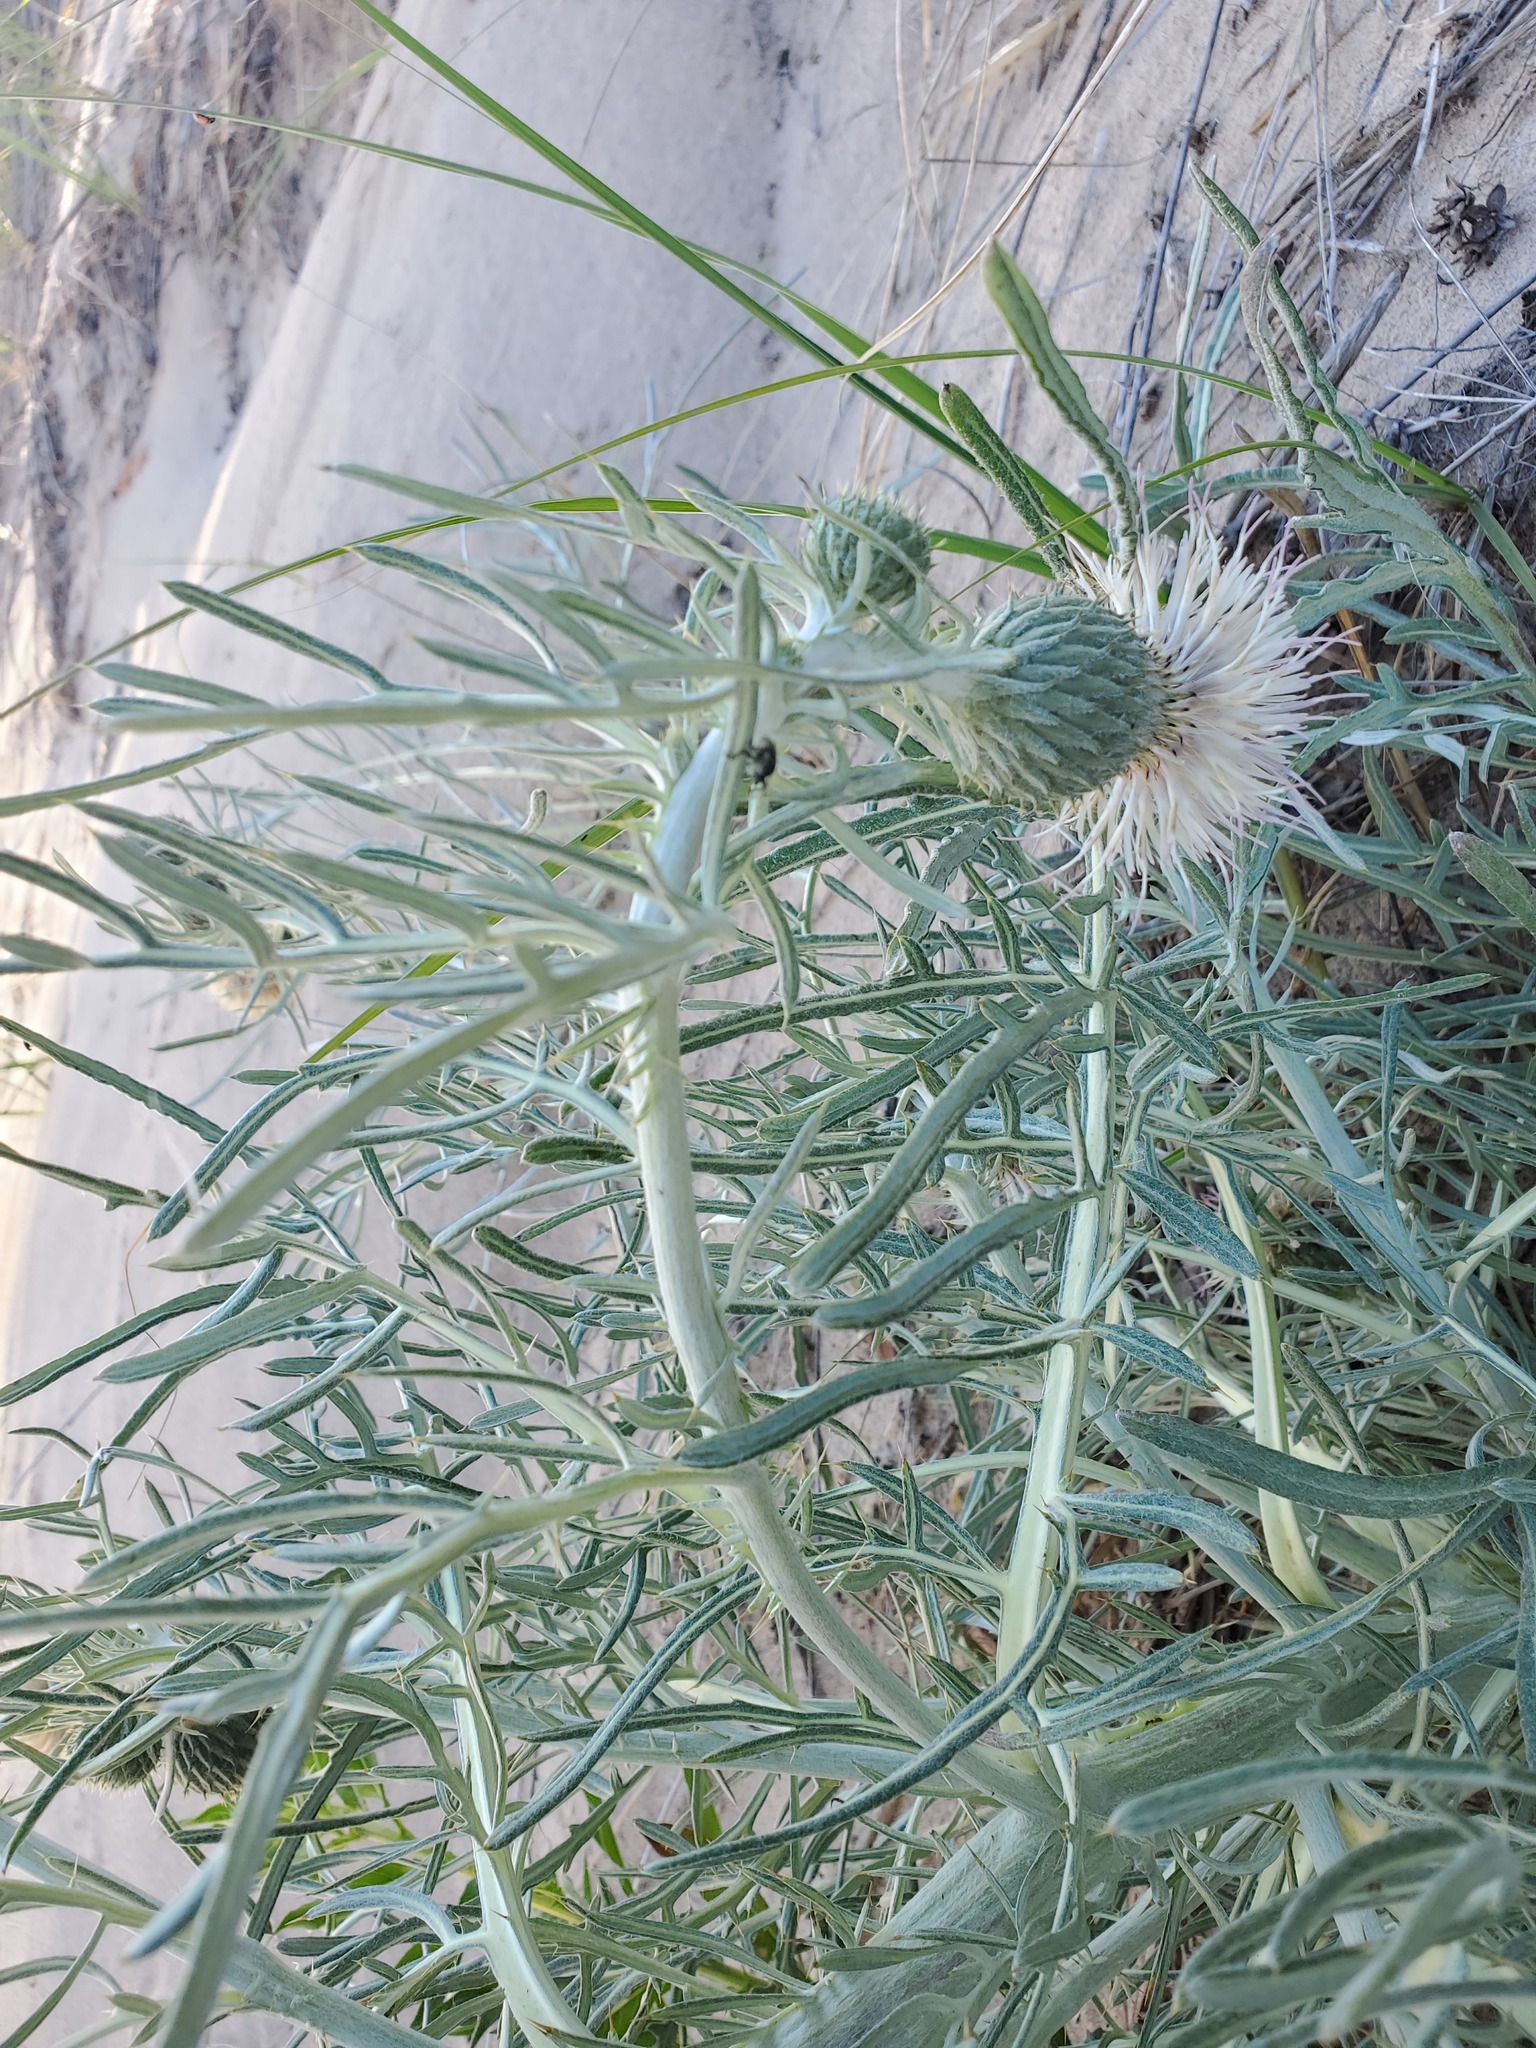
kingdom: Plantae
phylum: Tracheophyta
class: Magnoliopsida
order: Asterales
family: Asteraceae
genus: Cirsium
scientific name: Cirsium pitcheri
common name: Dune thistle
